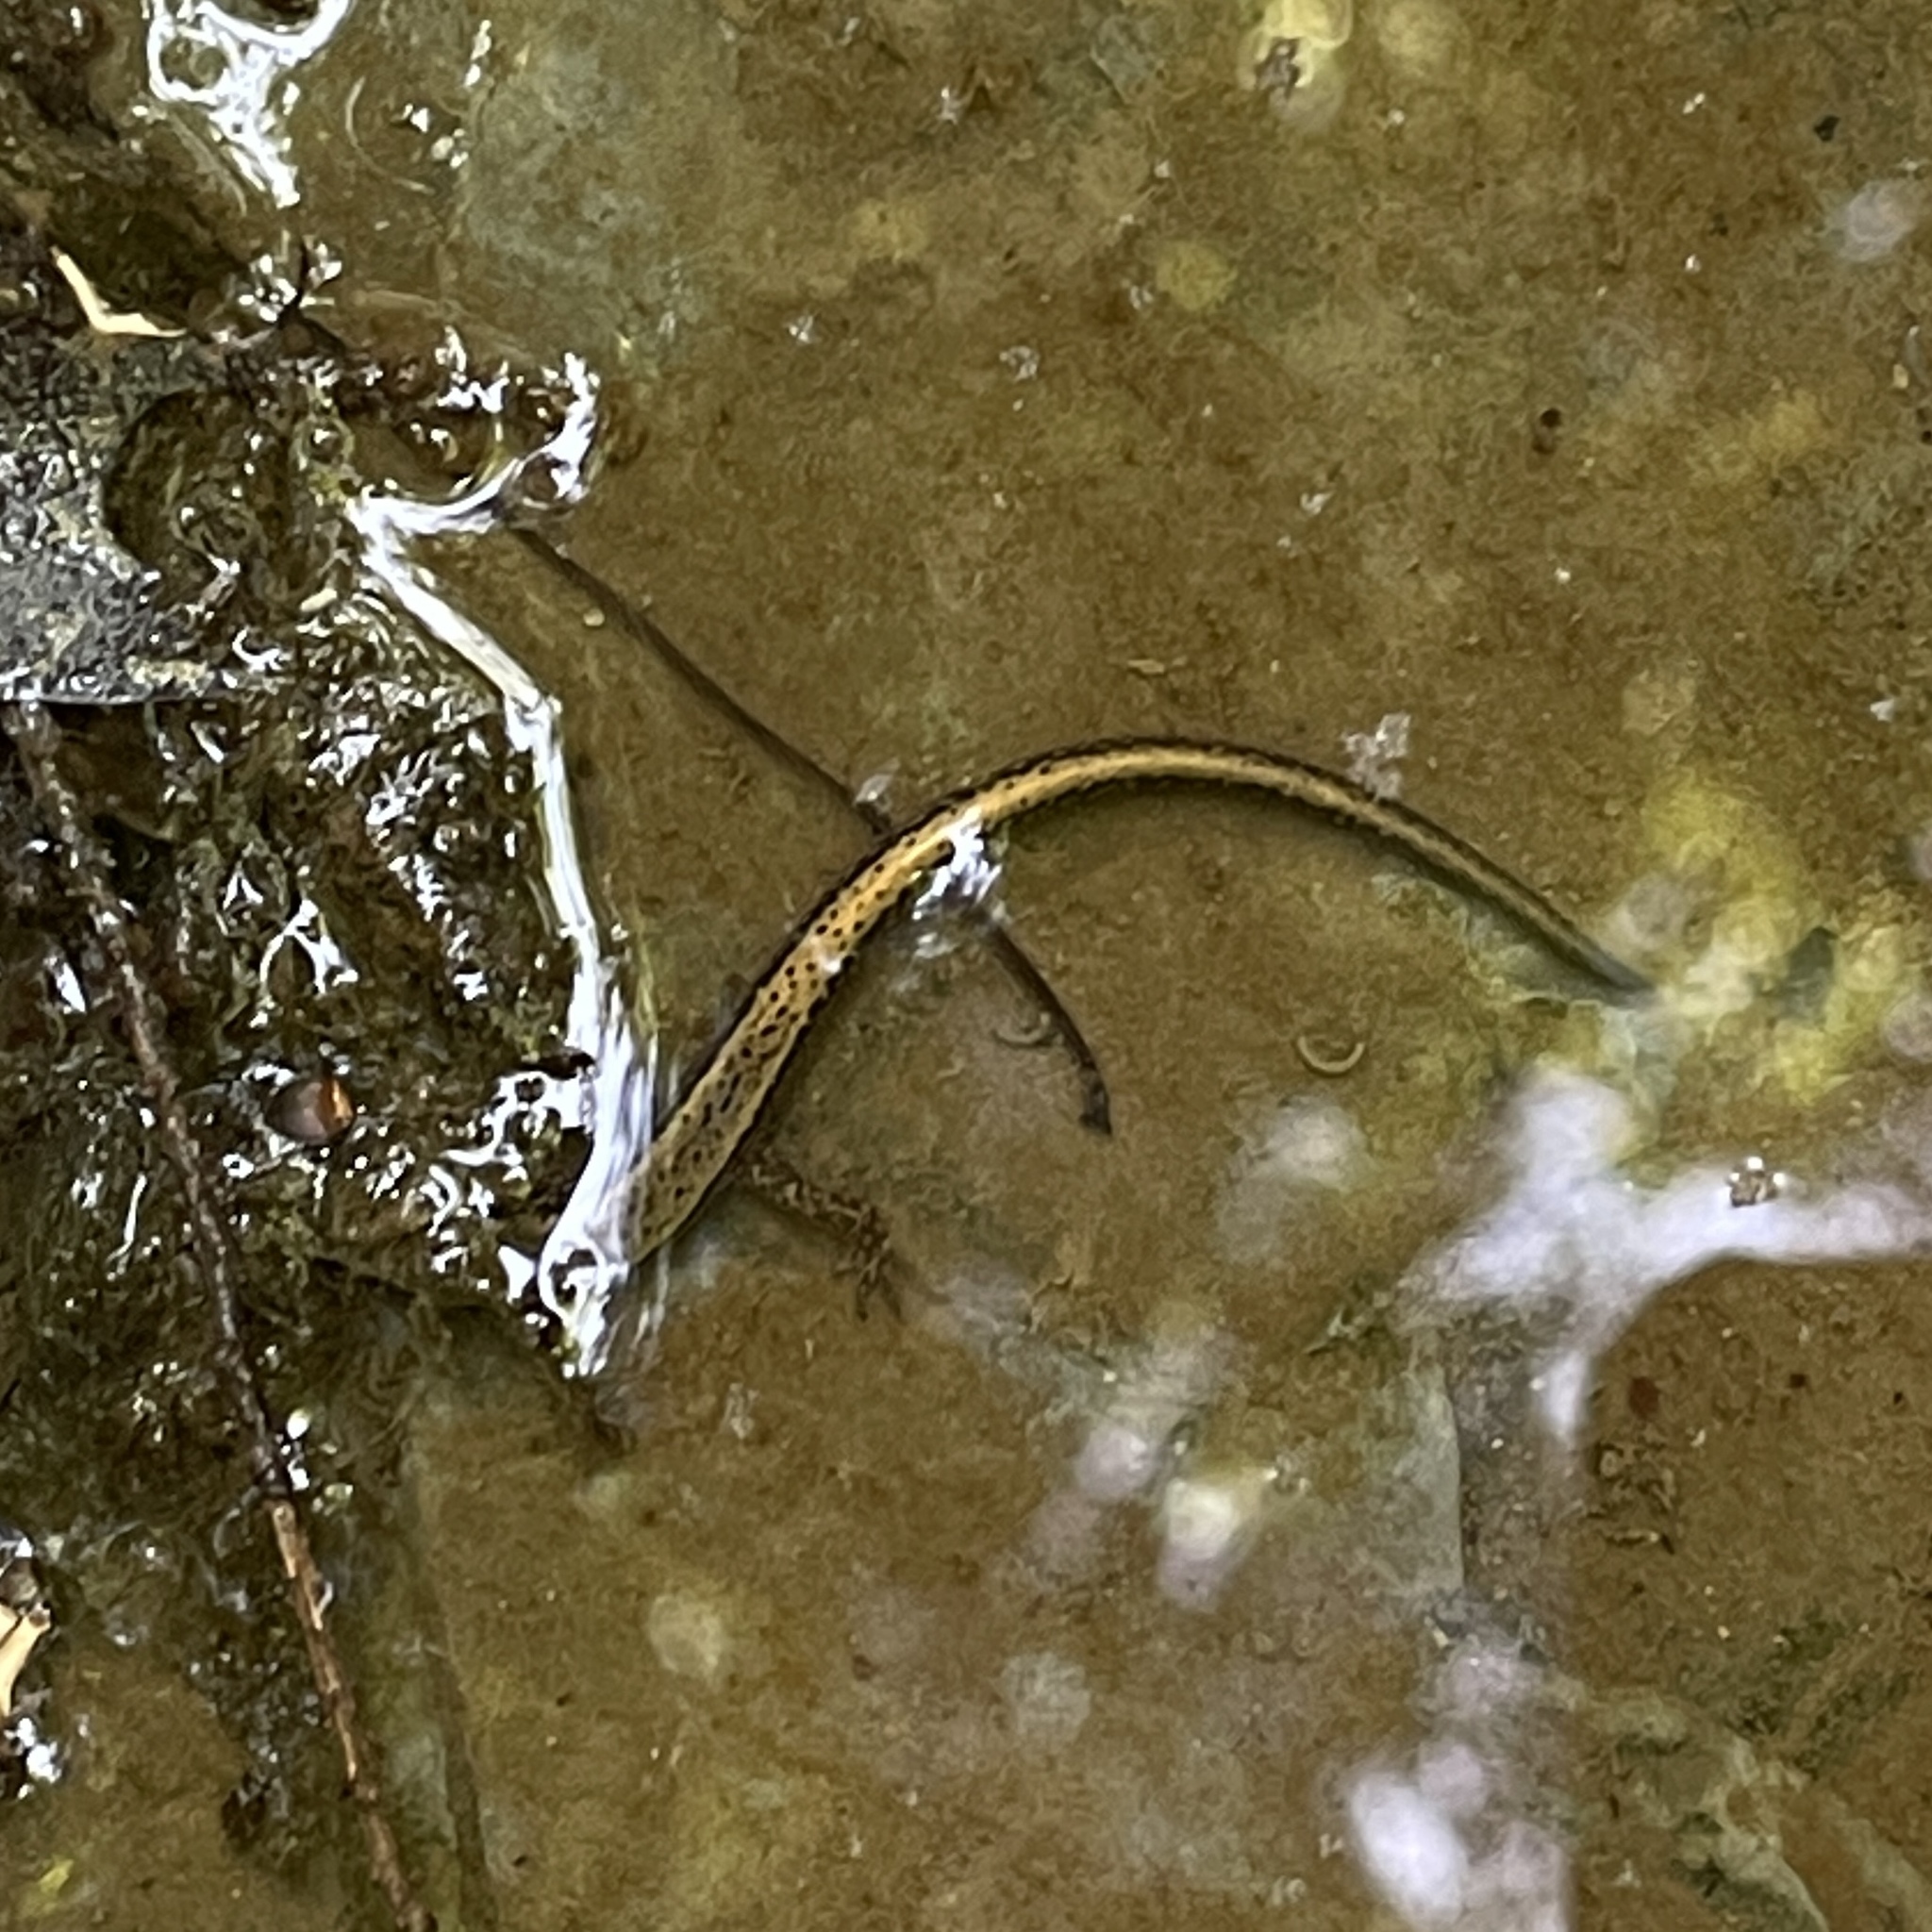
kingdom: Animalia
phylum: Chordata
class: Amphibia
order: Caudata
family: Plethodontidae
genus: Eurycea
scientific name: Eurycea bislineata
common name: Northern two-lined salamander
